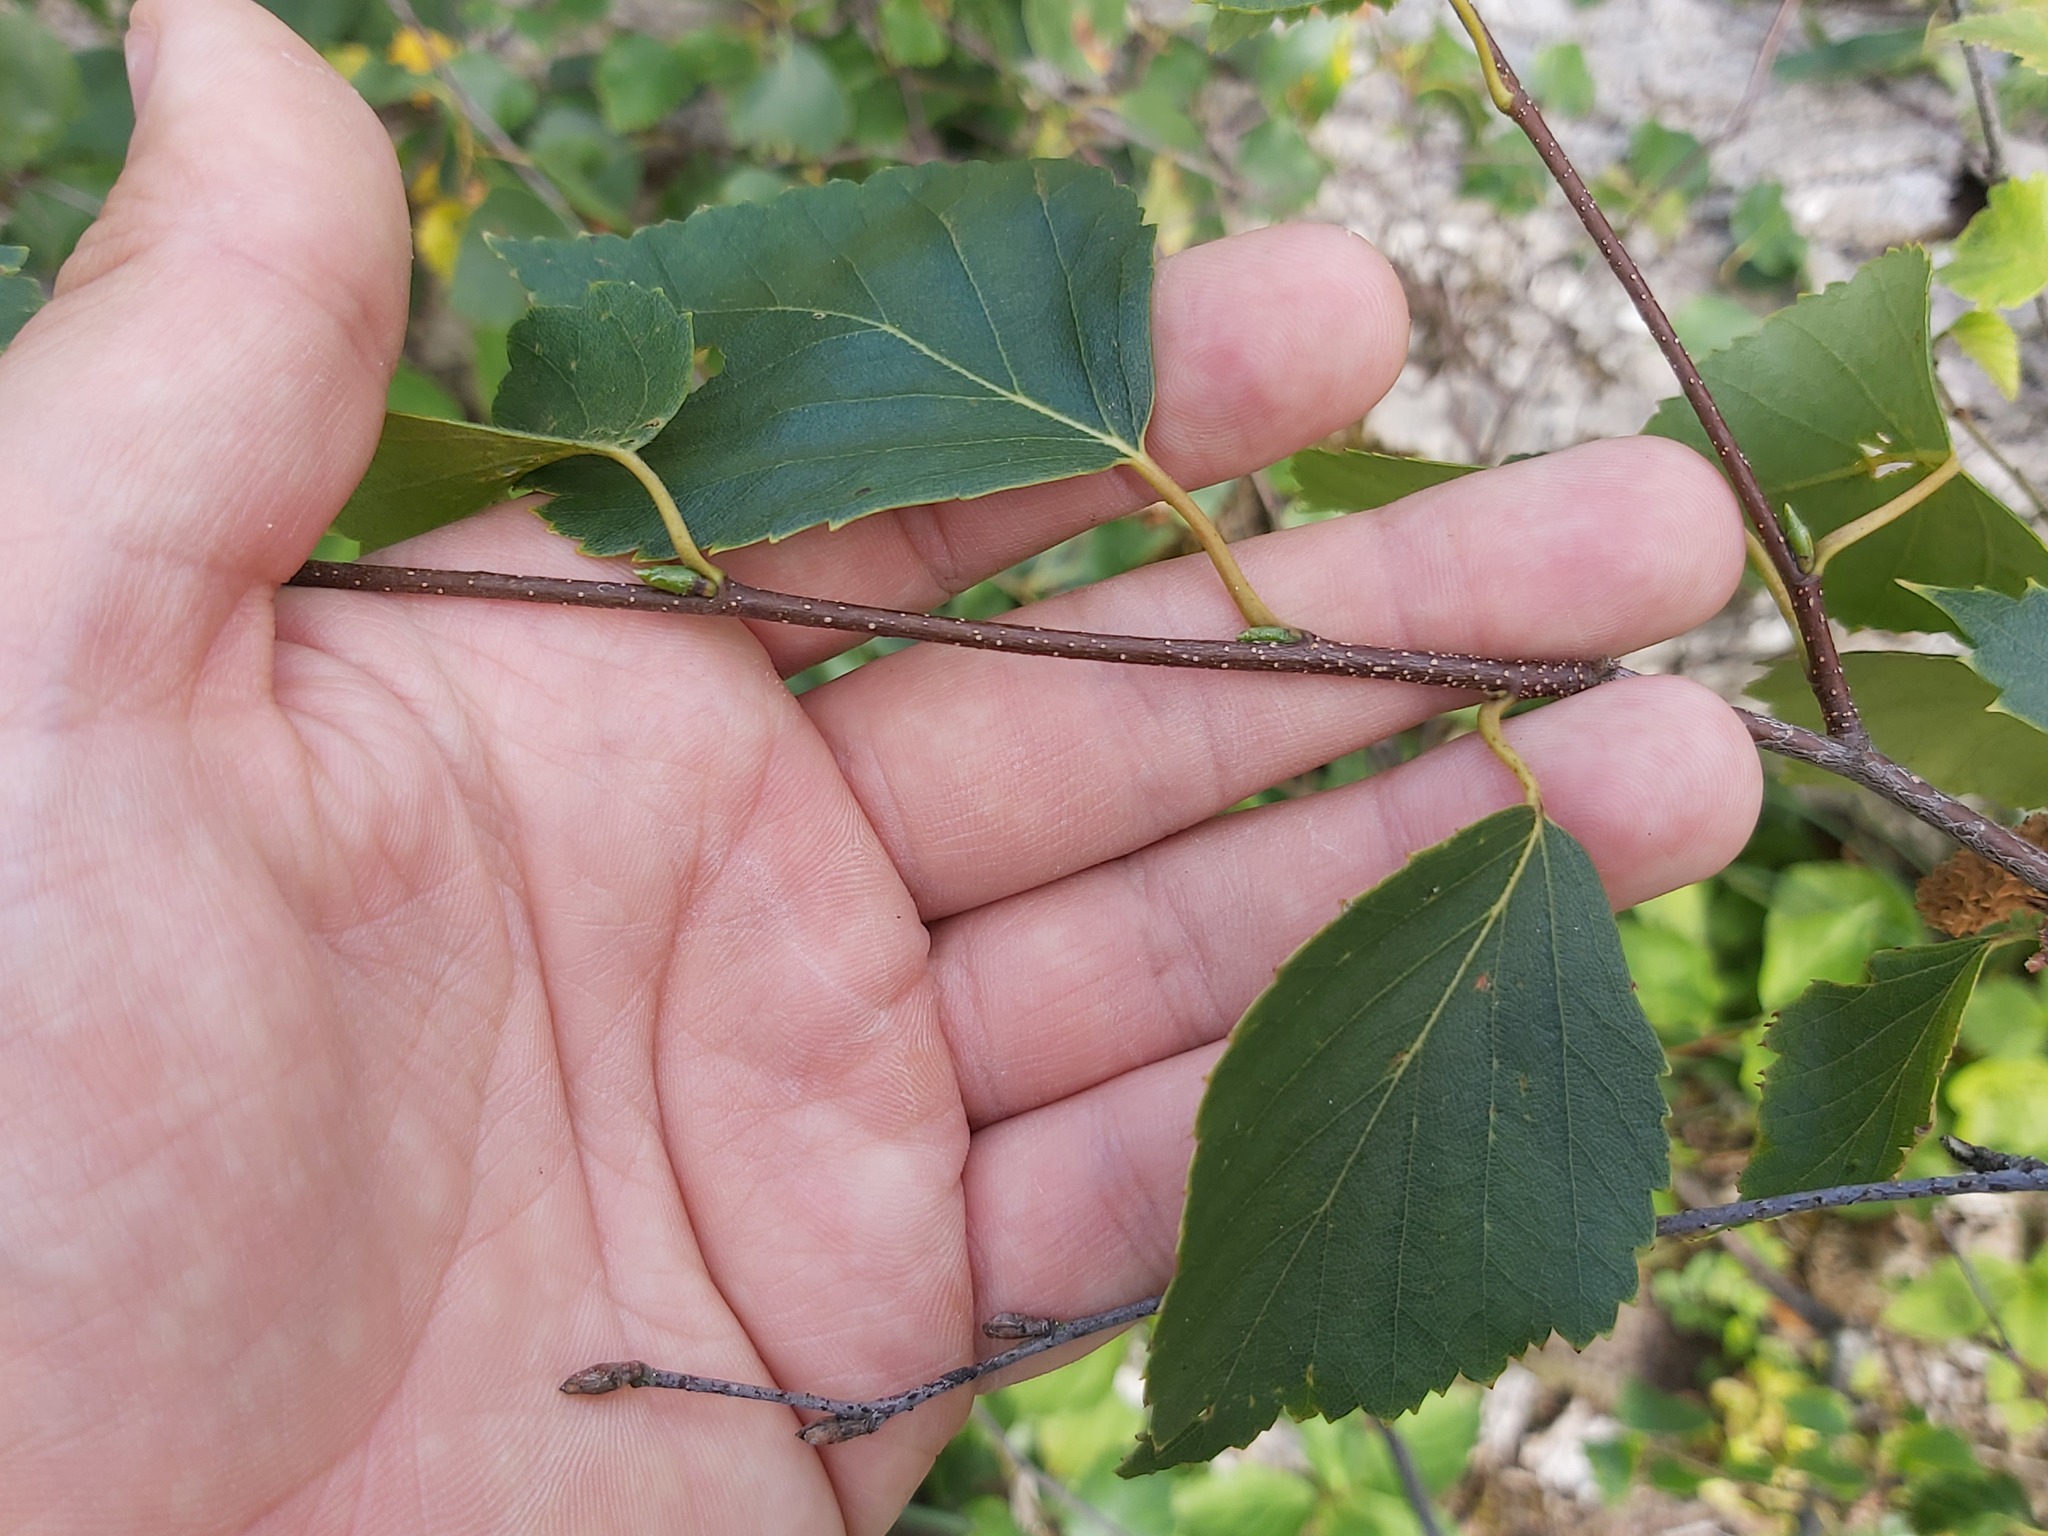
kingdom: Plantae
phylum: Tracheophyta
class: Magnoliopsida
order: Fagales
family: Betulaceae
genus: Betula
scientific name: Betula pendula
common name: Silver birch
